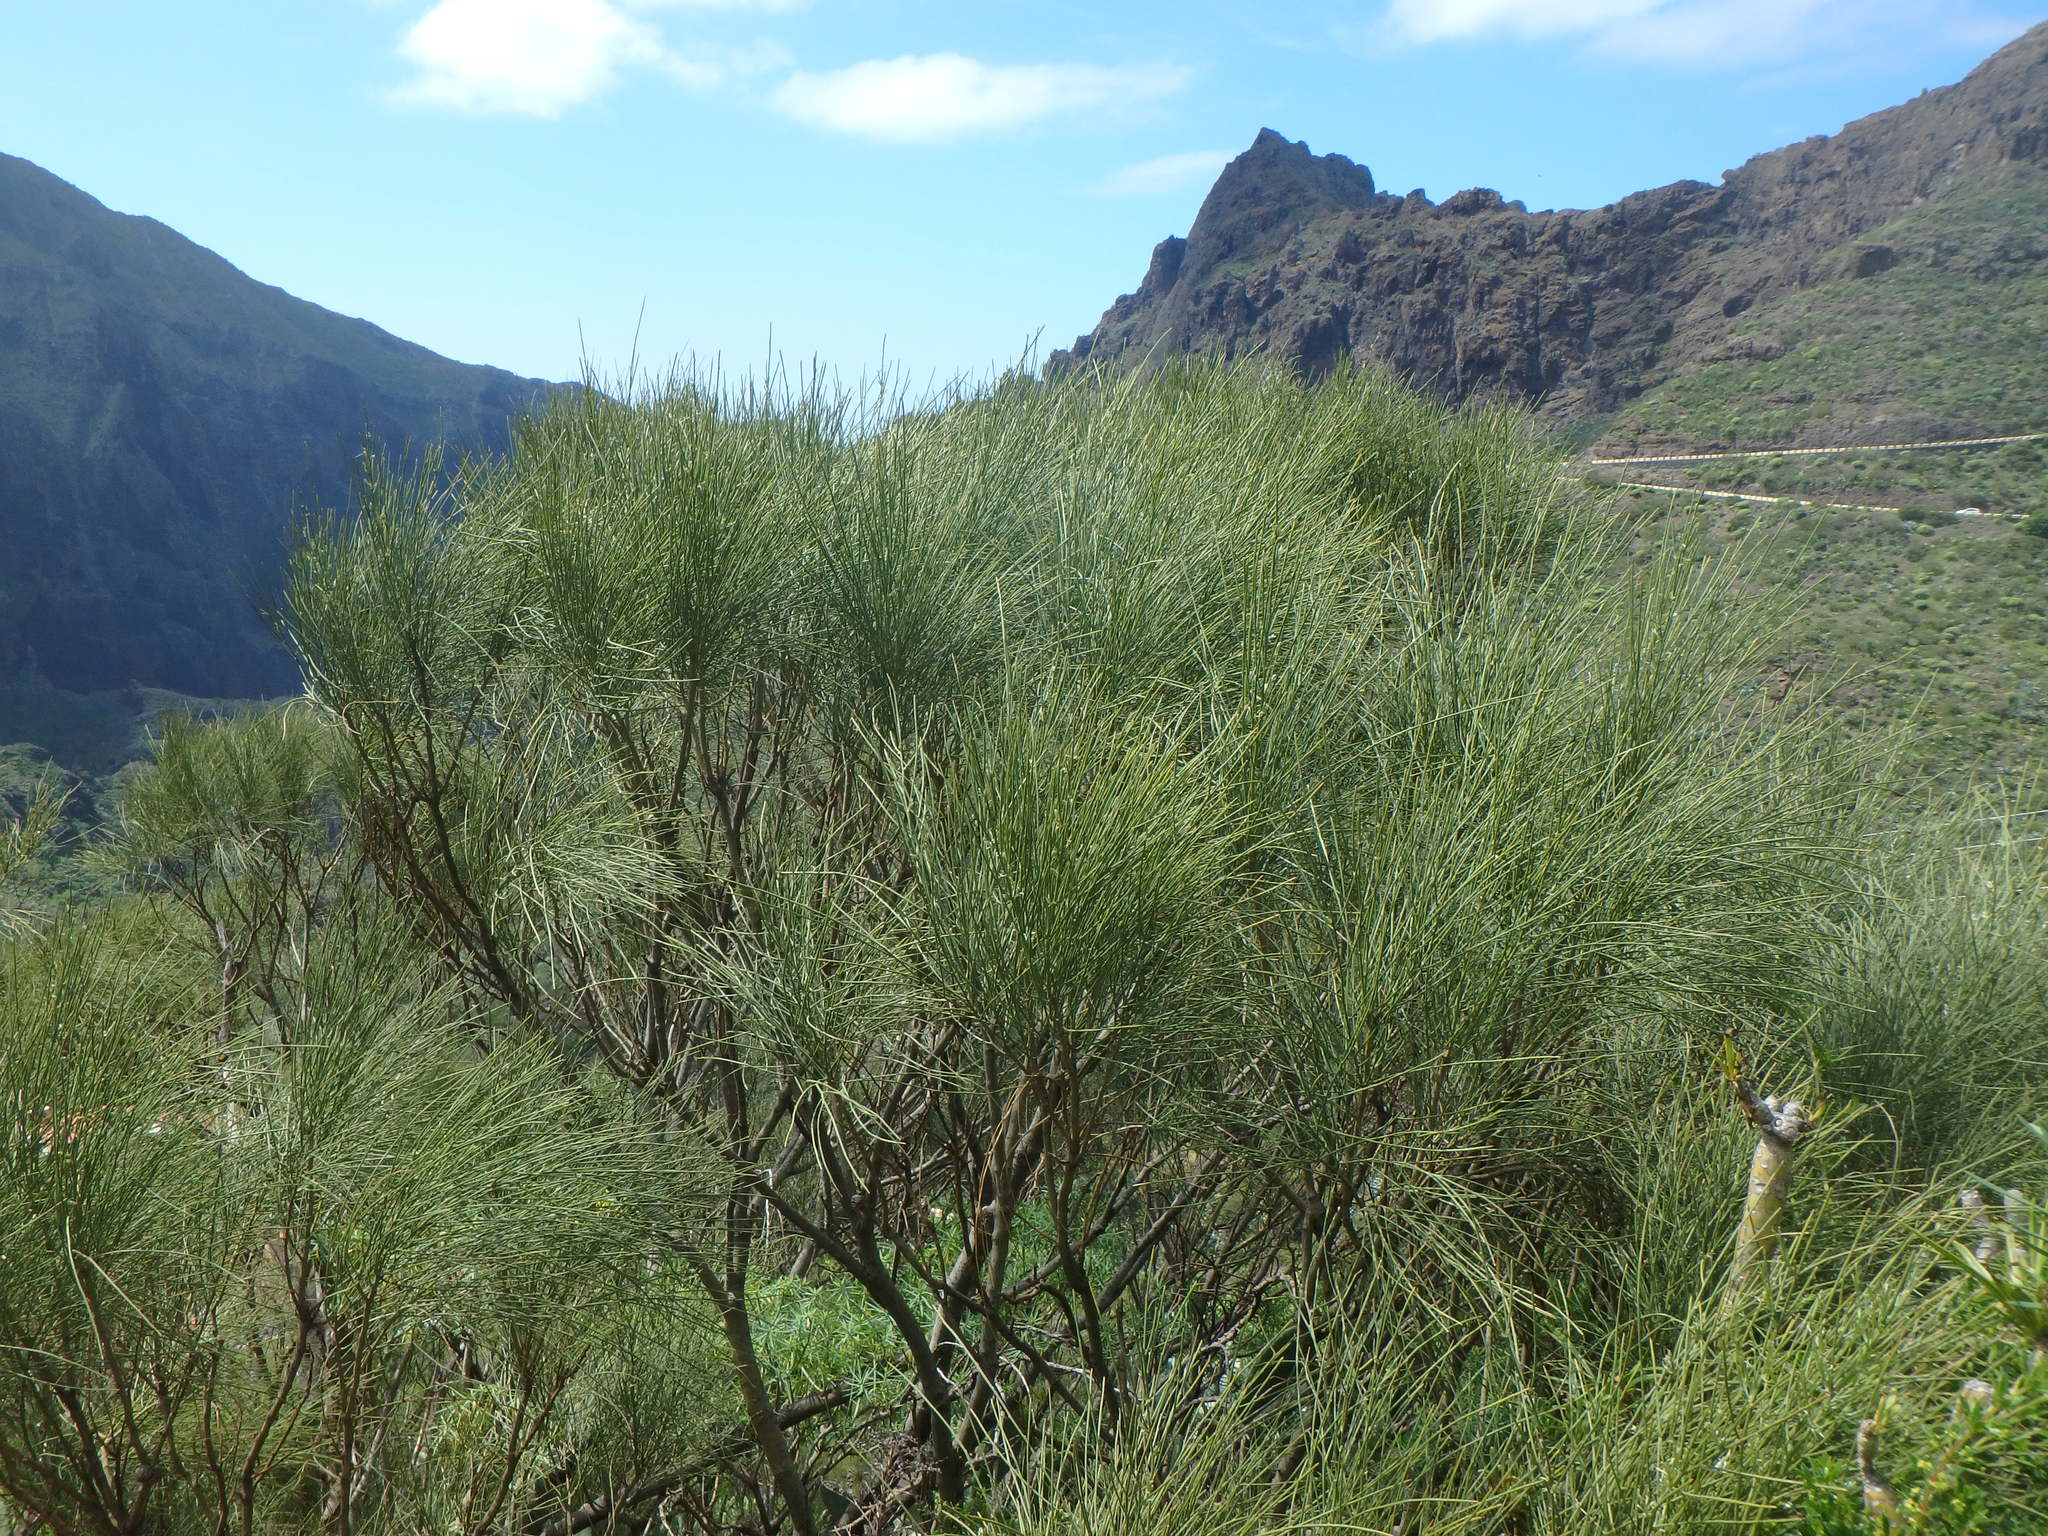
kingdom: Plantae
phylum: Tracheophyta
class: Magnoliopsida
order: Fabales
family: Fabaceae
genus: Retama
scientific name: Retama rhodorhizoides
